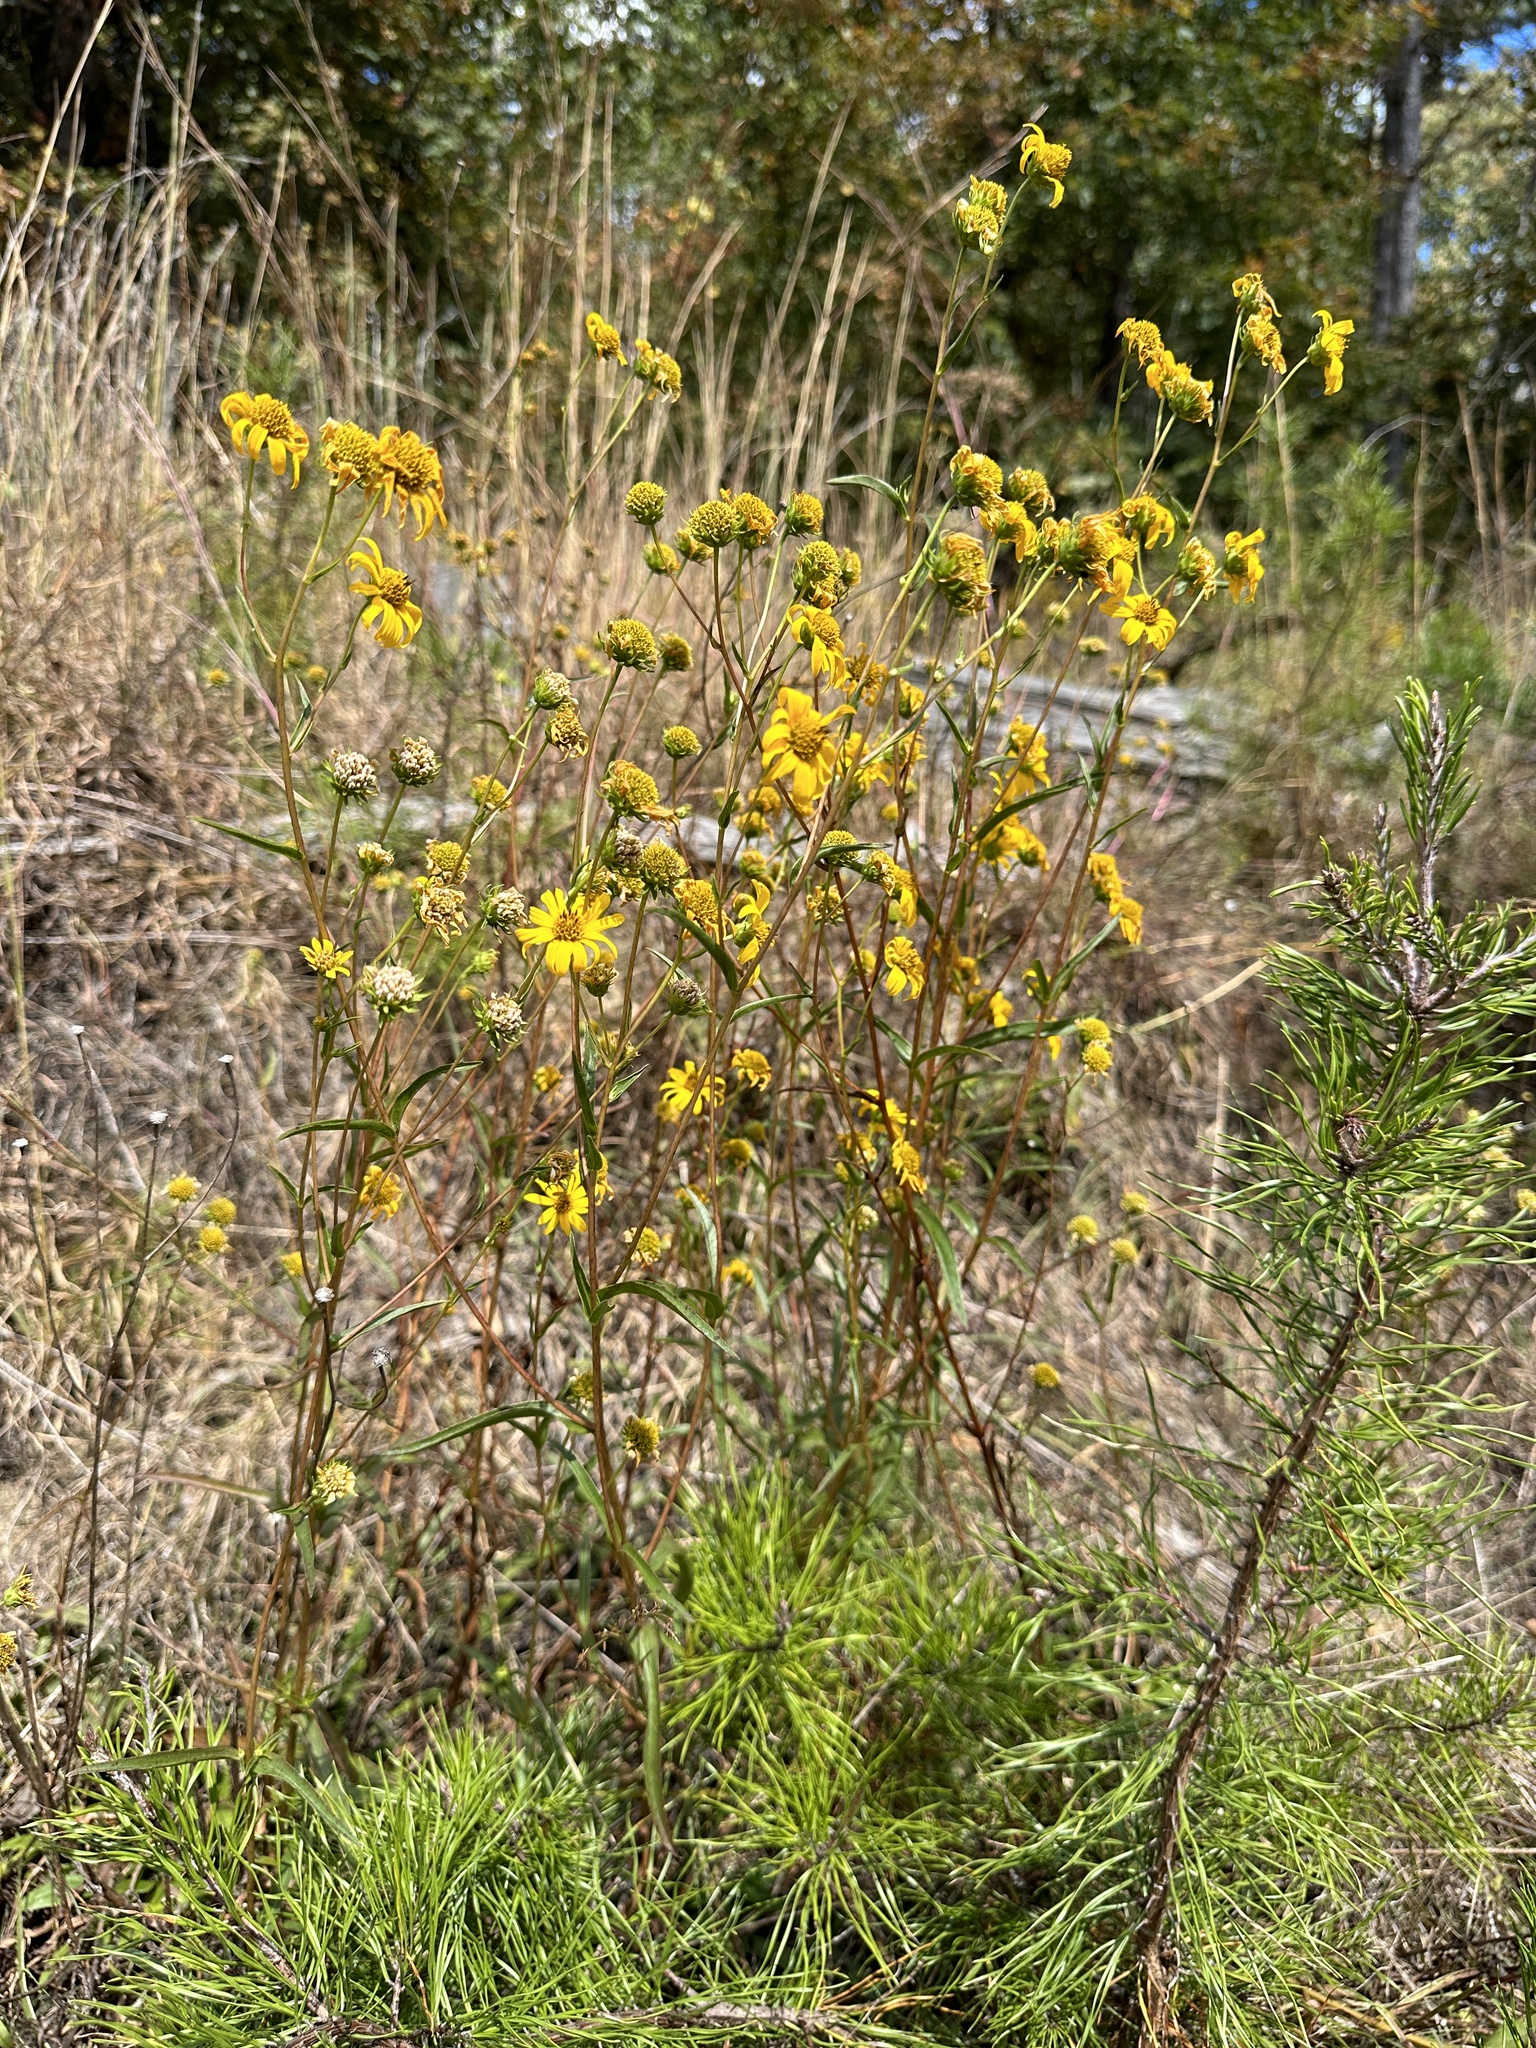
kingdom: Plantae
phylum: Tracheophyta
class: Magnoliopsida
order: Asterales
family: Asteraceae
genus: Helianthus
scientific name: Helianthus longifolius
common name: Longleaf sunflower
